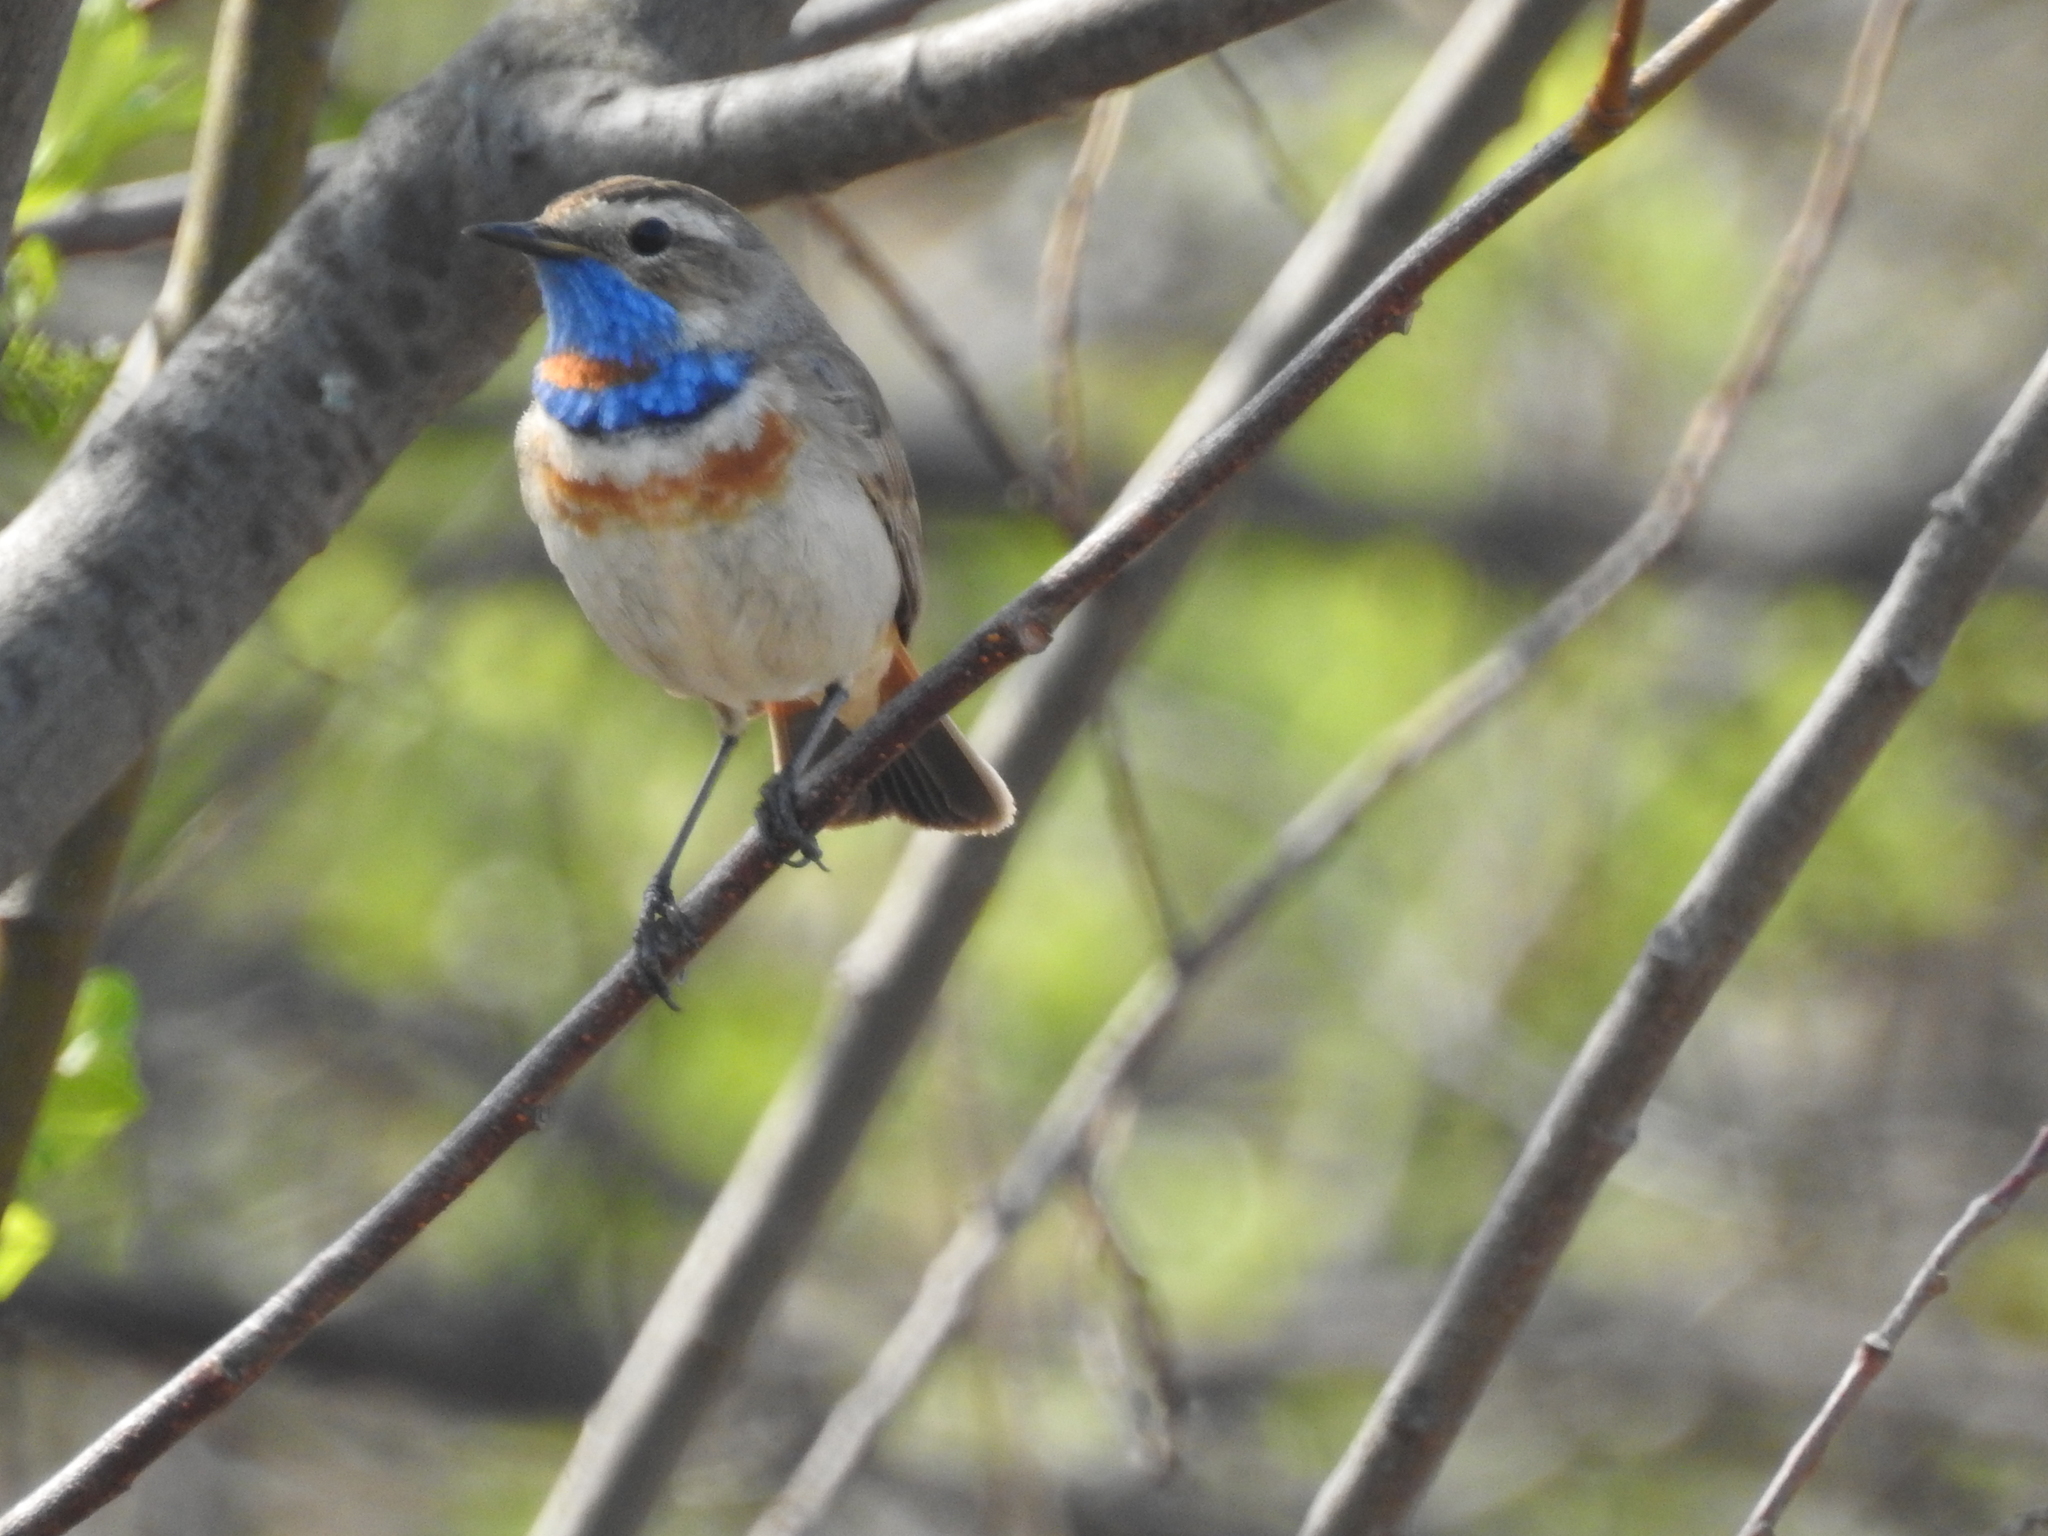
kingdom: Animalia
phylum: Chordata
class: Aves
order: Passeriformes
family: Muscicapidae
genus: Luscinia
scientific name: Luscinia svecica
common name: Bluethroat
